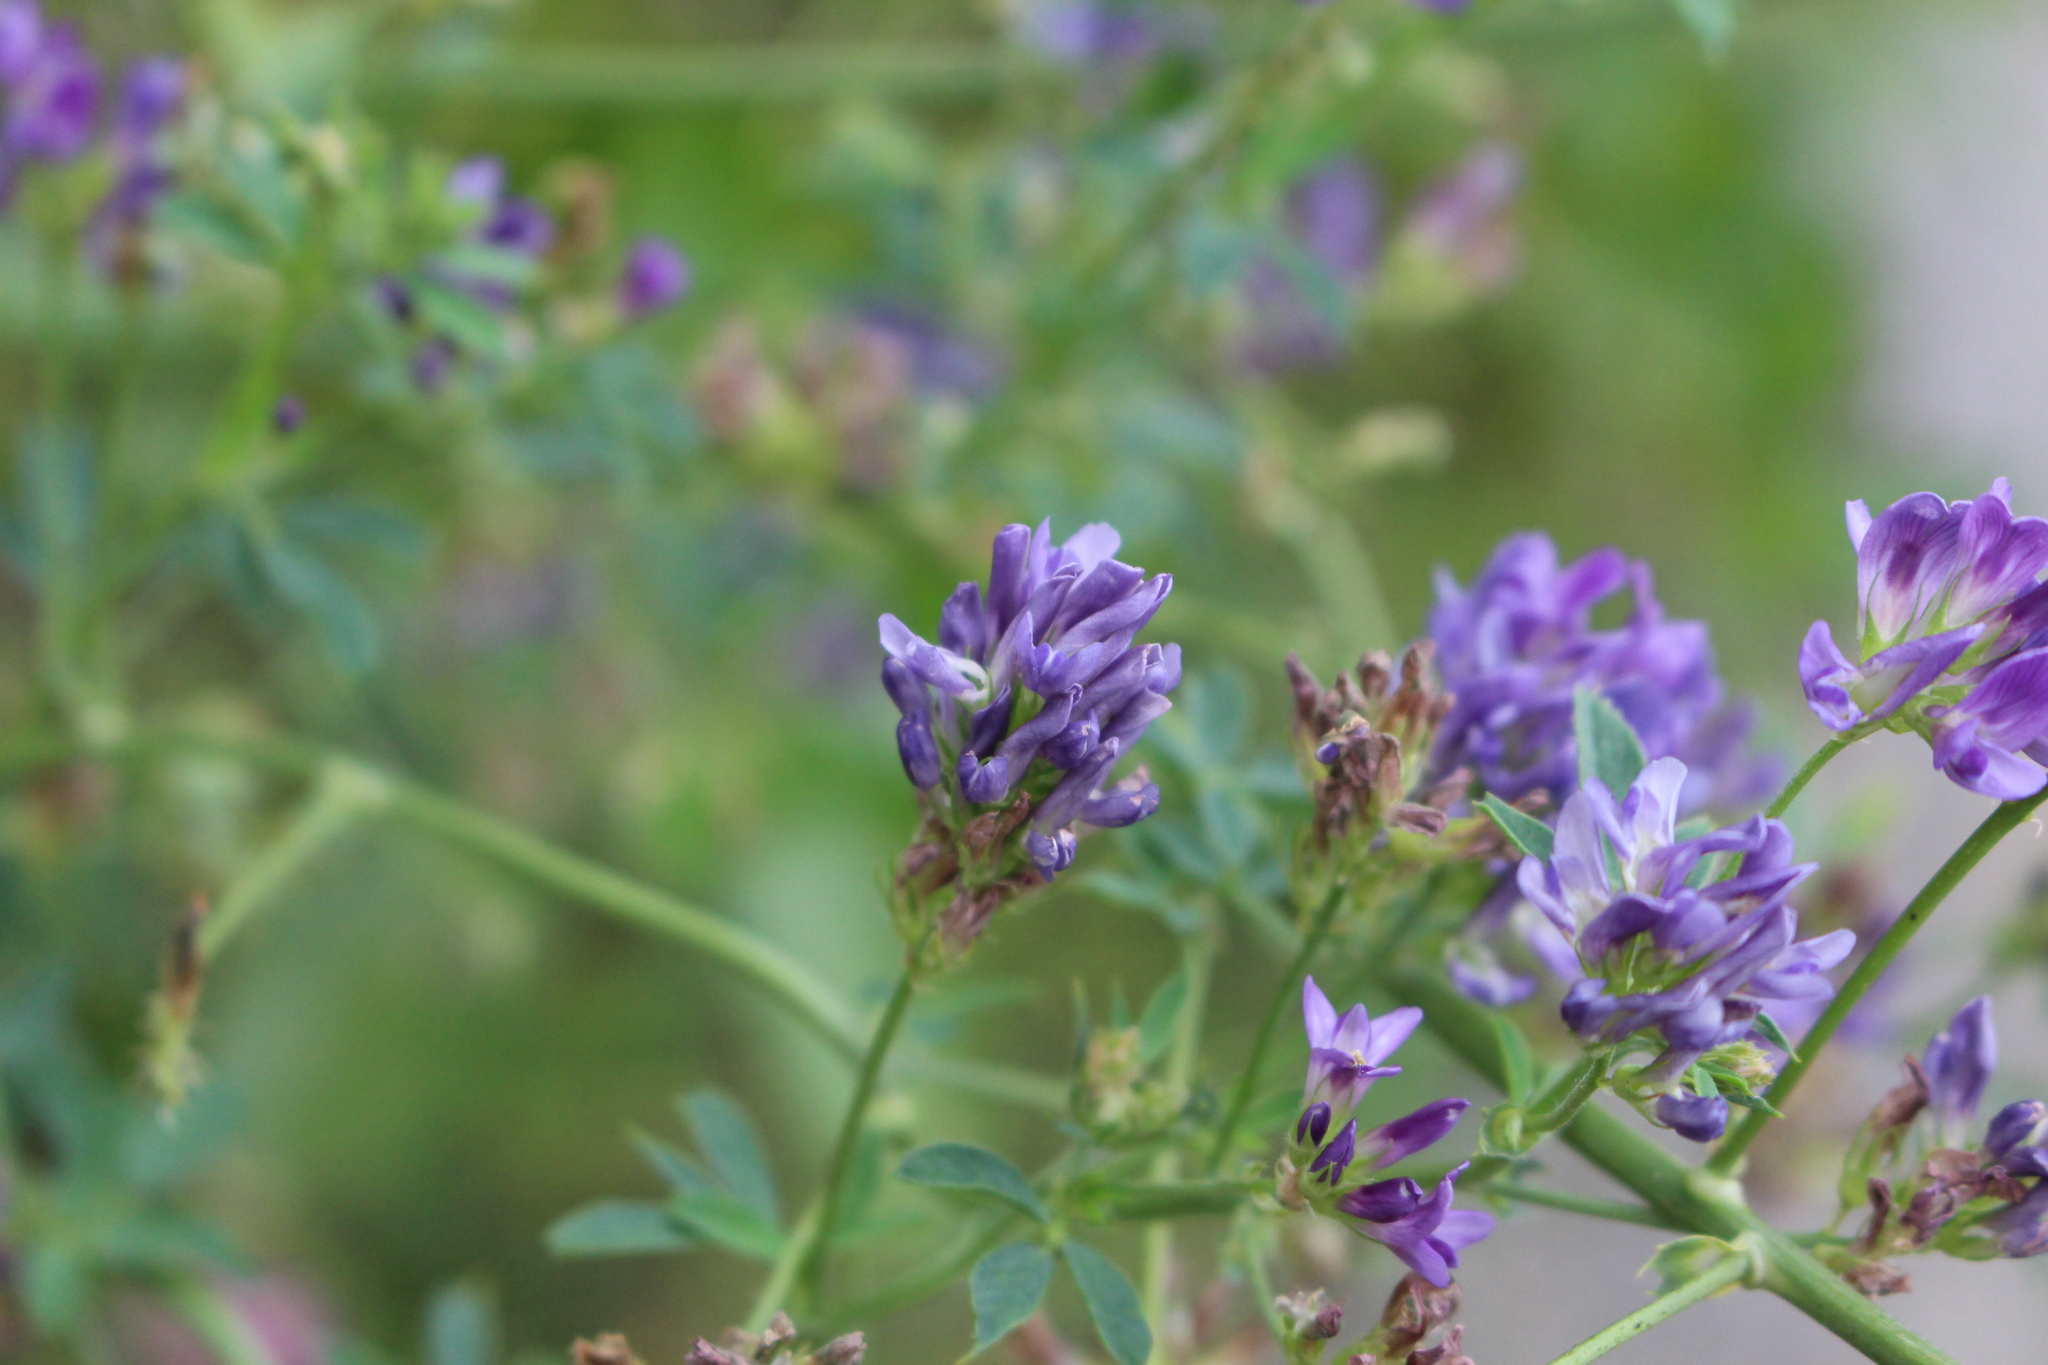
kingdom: Plantae
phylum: Tracheophyta
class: Magnoliopsida
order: Fabales
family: Fabaceae
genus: Medicago
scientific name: Medicago sativa
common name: Alfalfa
